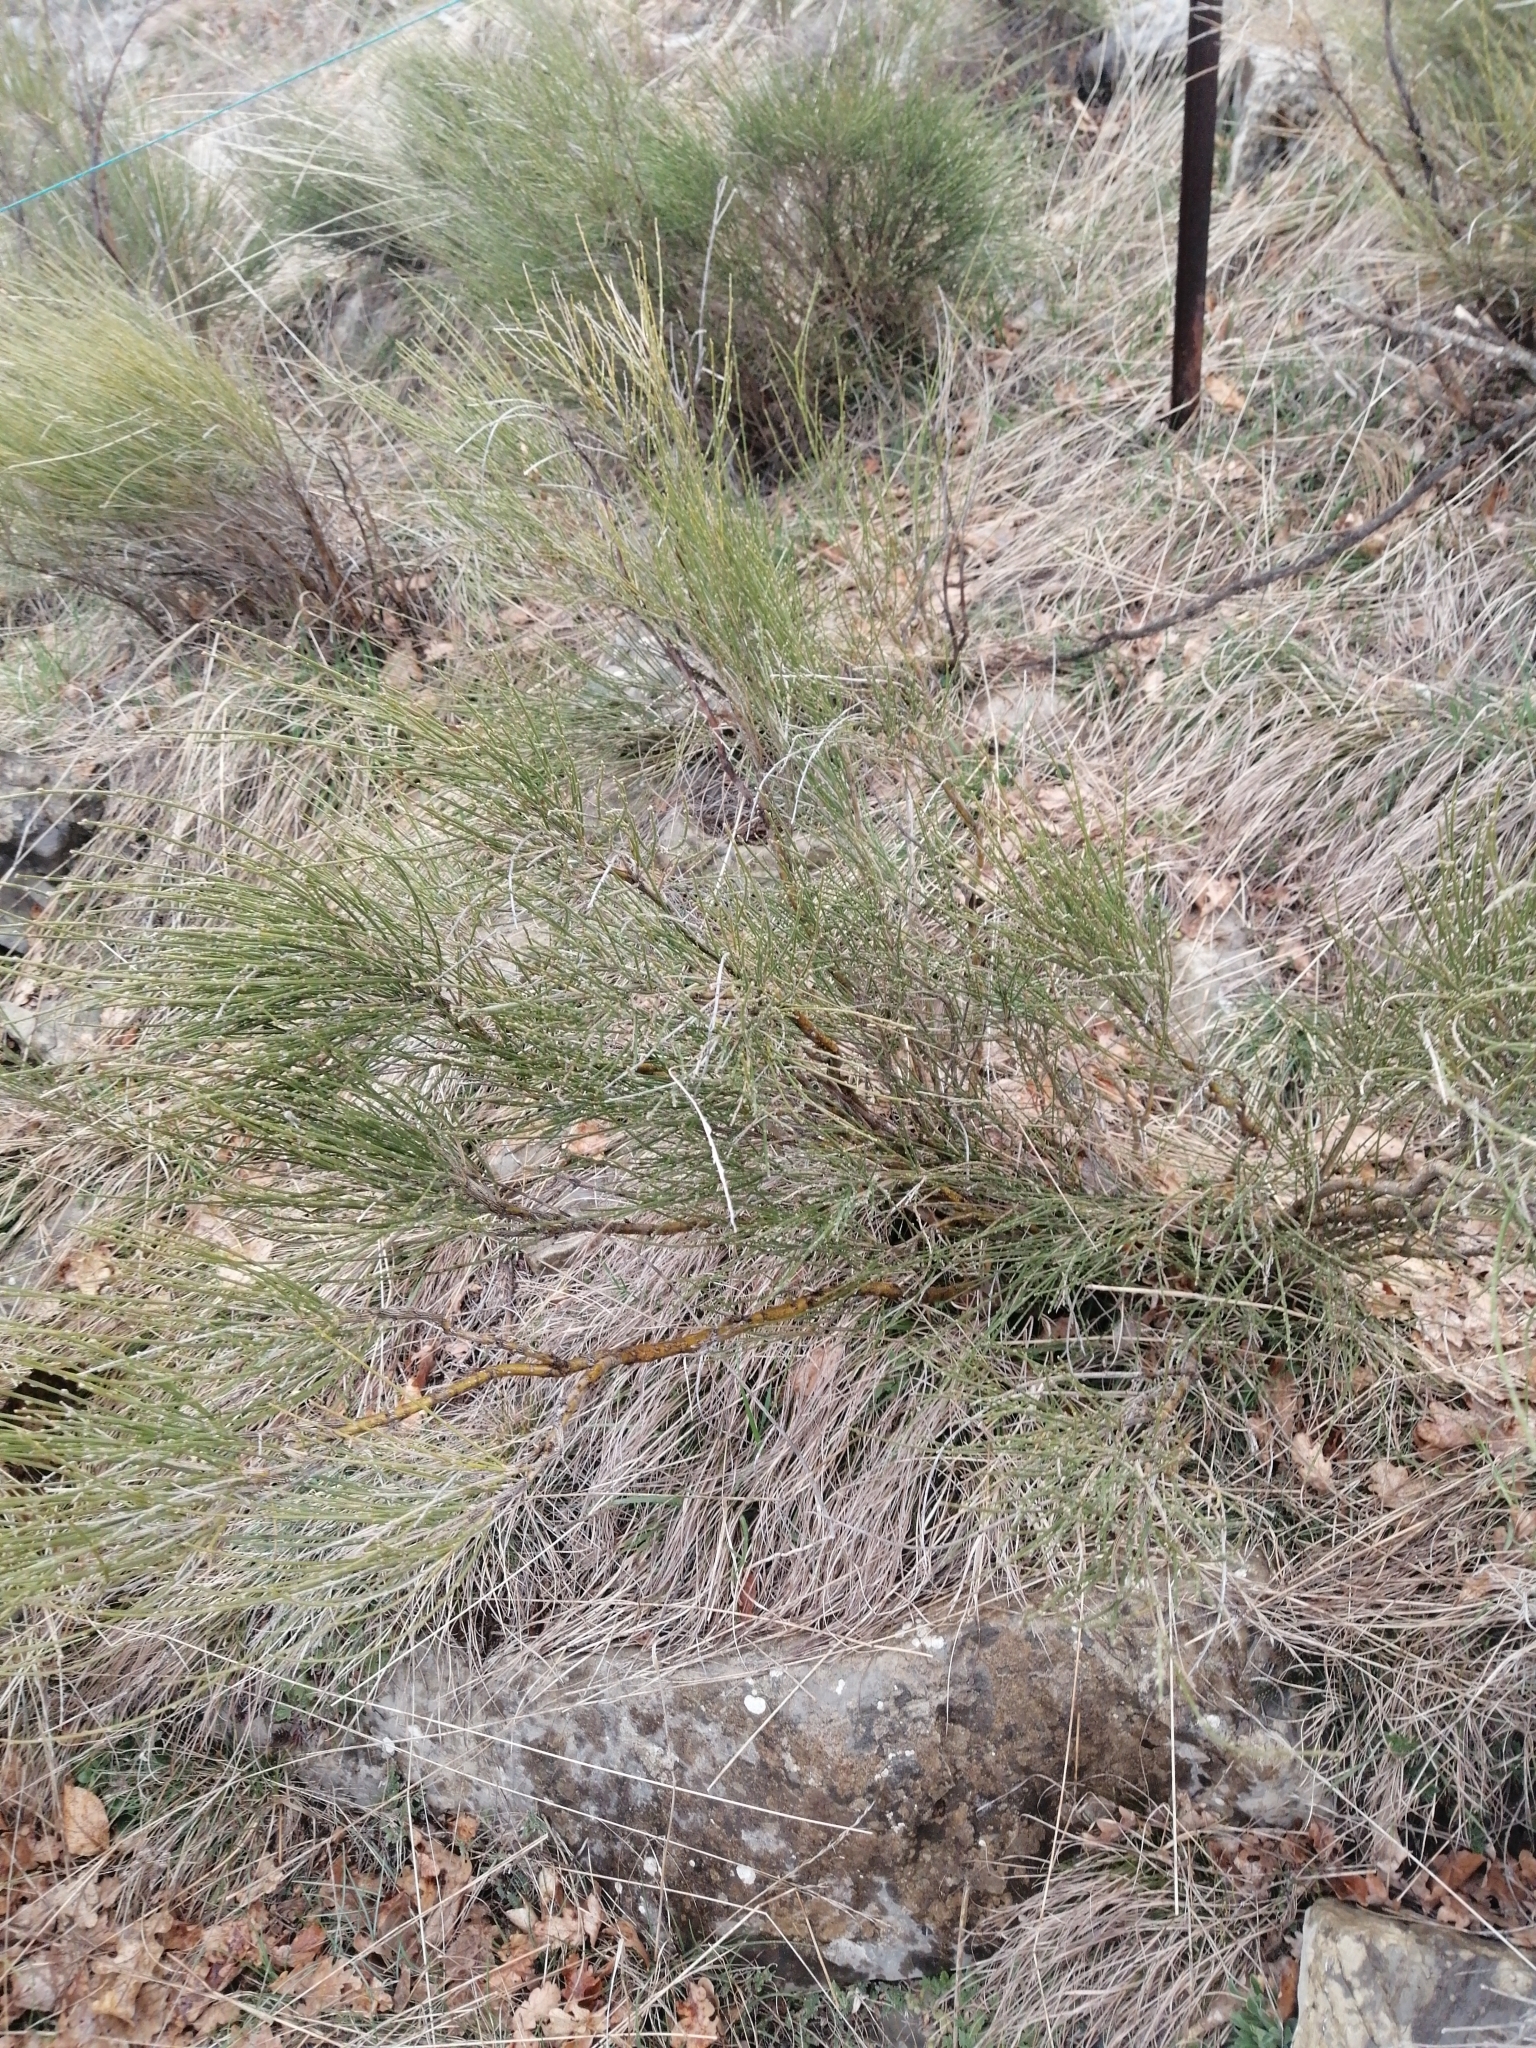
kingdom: Plantae
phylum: Tracheophyta
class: Magnoliopsida
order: Fabales
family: Fabaceae
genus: Cytisus
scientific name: Cytisus scoparius
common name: Scotch broom
